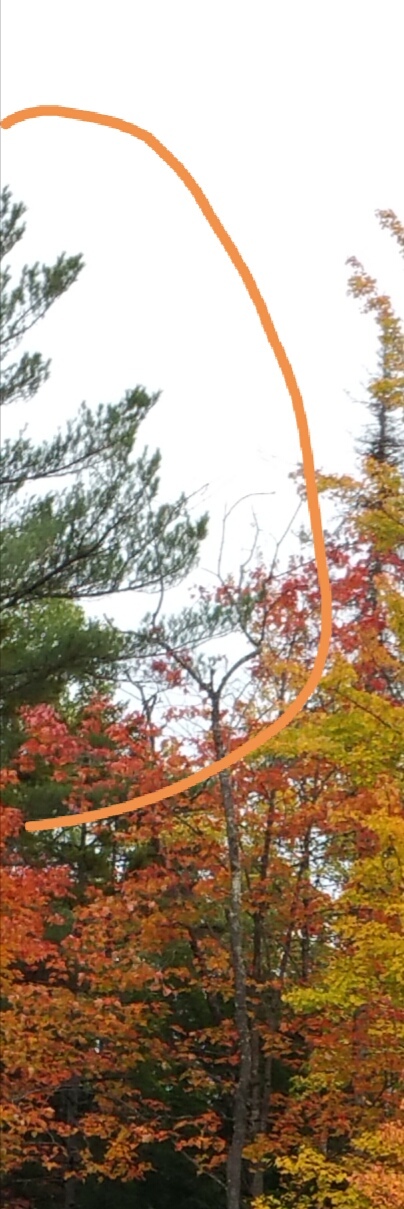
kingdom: Plantae
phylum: Tracheophyta
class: Pinopsida
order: Pinales
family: Pinaceae
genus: Pinus
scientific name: Pinus strobus
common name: Weymouth pine
